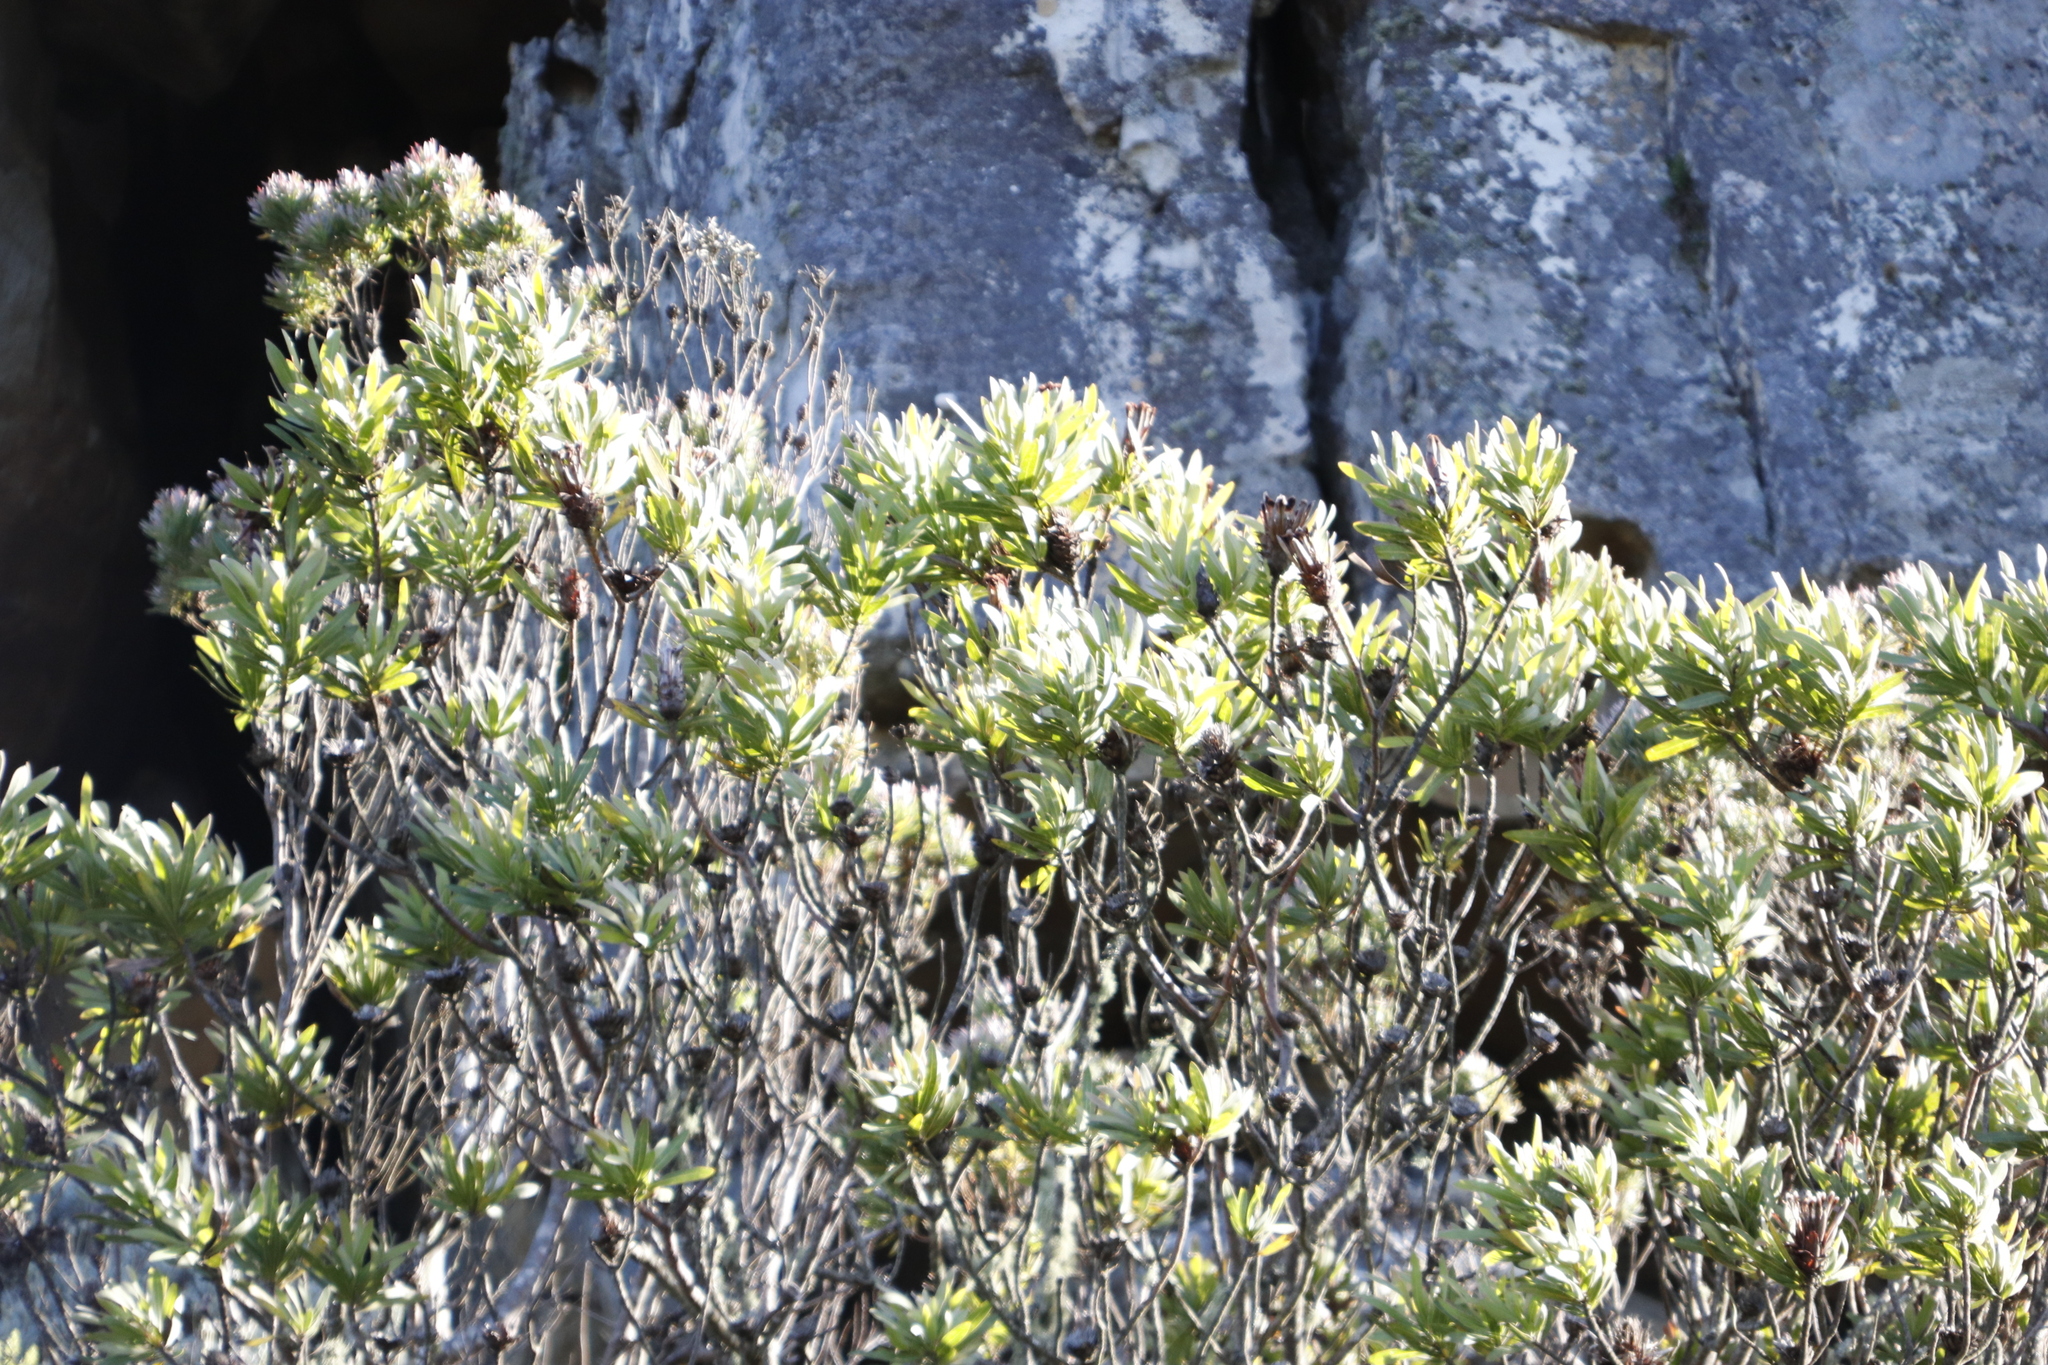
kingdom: Plantae
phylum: Tracheophyta
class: Magnoliopsida
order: Proteales
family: Proteaceae
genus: Protea
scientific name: Protea lepidocarpodendron
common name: Black-bearded protea
